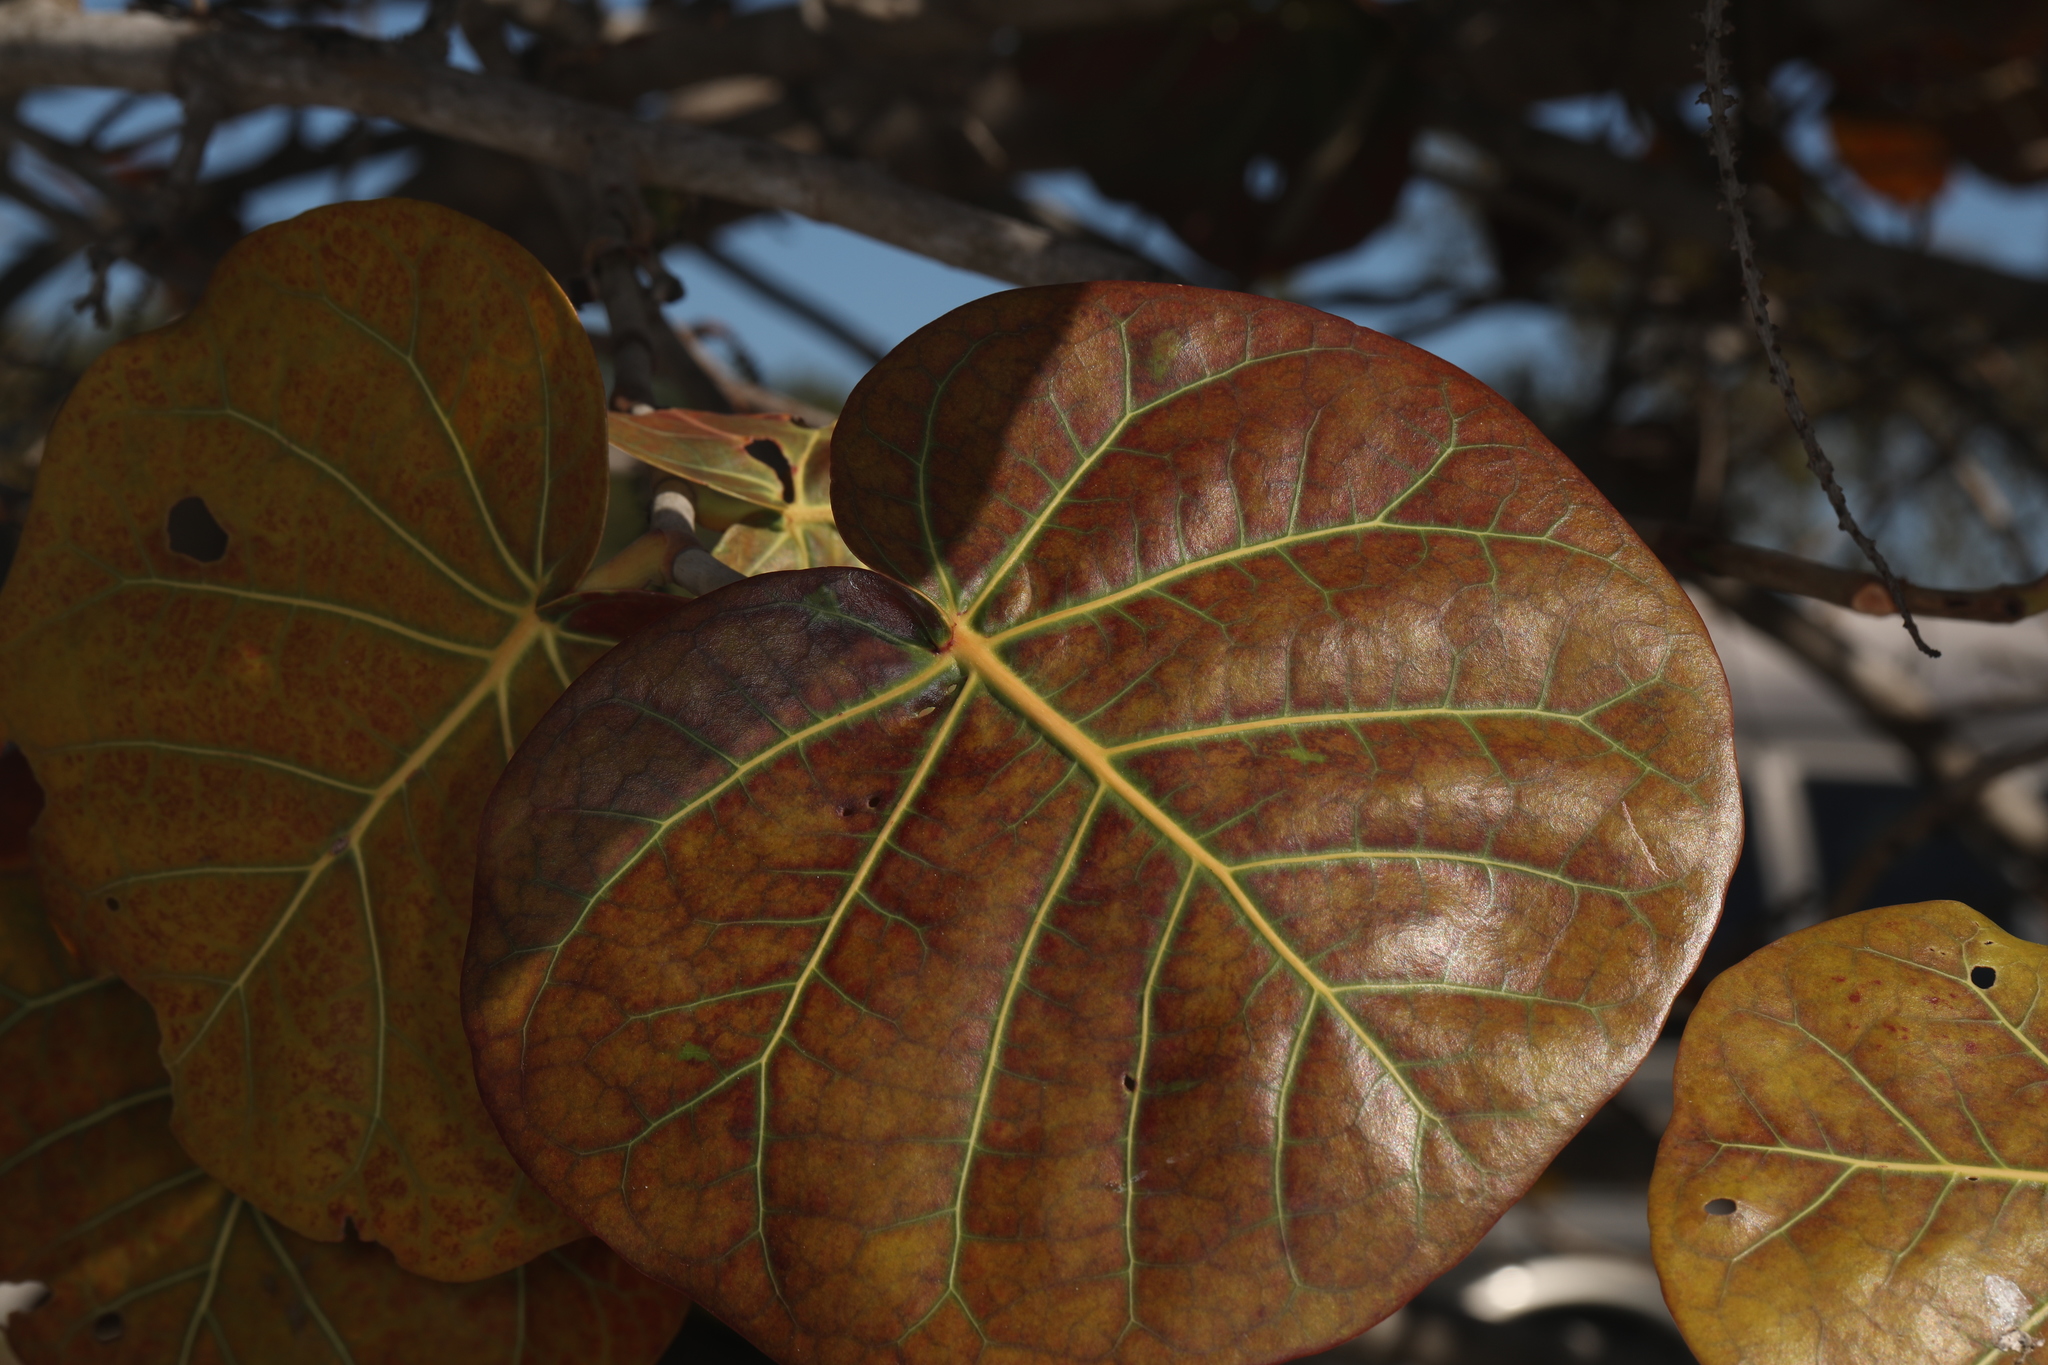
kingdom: Plantae
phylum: Tracheophyta
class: Magnoliopsida
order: Caryophyllales
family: Polygonaceae
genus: Coccoloba
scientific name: Coccoloba uvifera
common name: Seagrape
